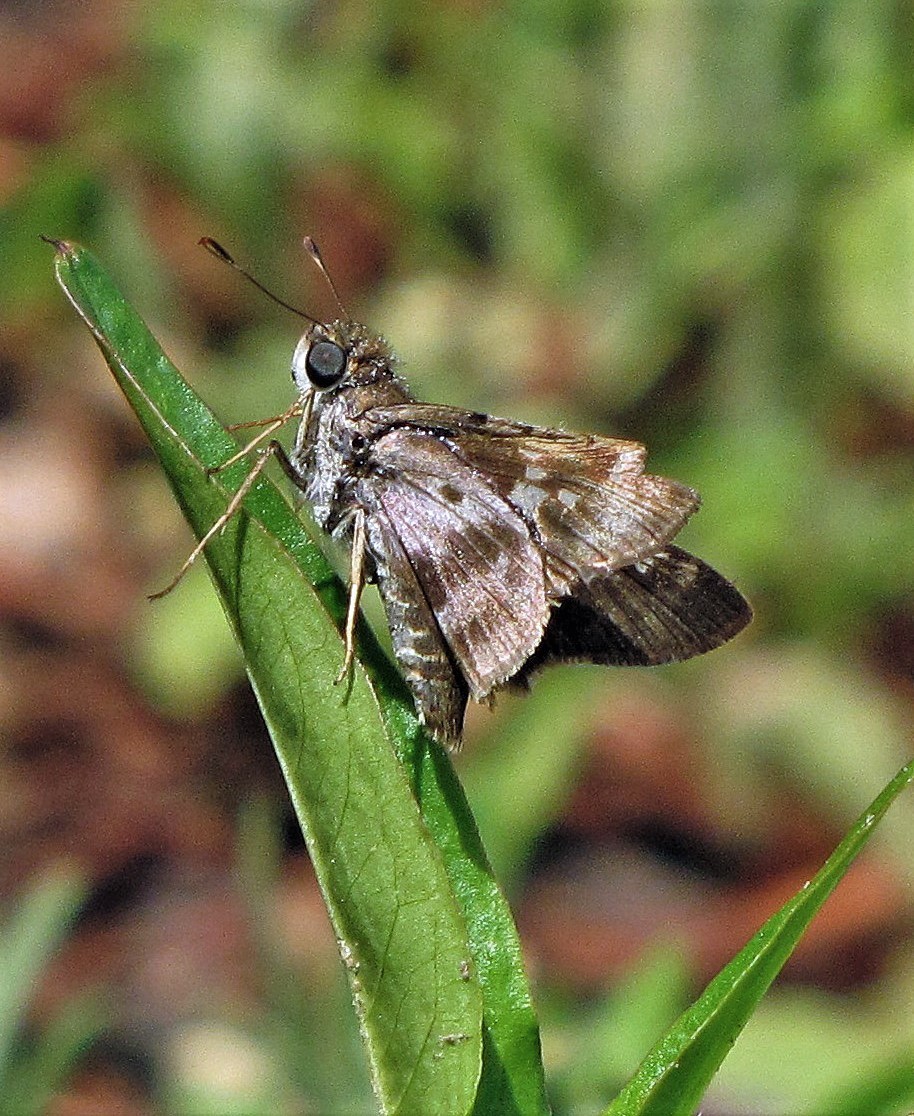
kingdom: Animalia
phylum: Arthropoda
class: Insecta
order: Lepidoptera
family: Hesperiidae
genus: Nyctelius
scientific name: Nyctelius nyctelius
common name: Violet-banded skipper
